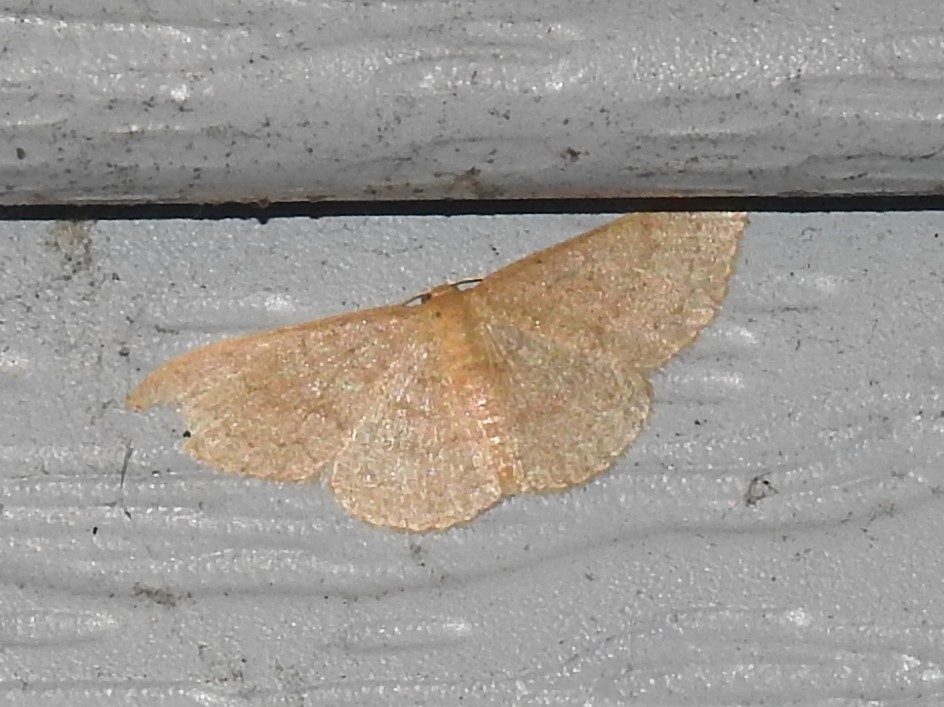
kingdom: Animalia
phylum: Arthropoda
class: Insecta
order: Lepidoptera
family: Geometridae
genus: Pleuroprucha
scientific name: Pleuroprucha insulsaria
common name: Common tan wave
